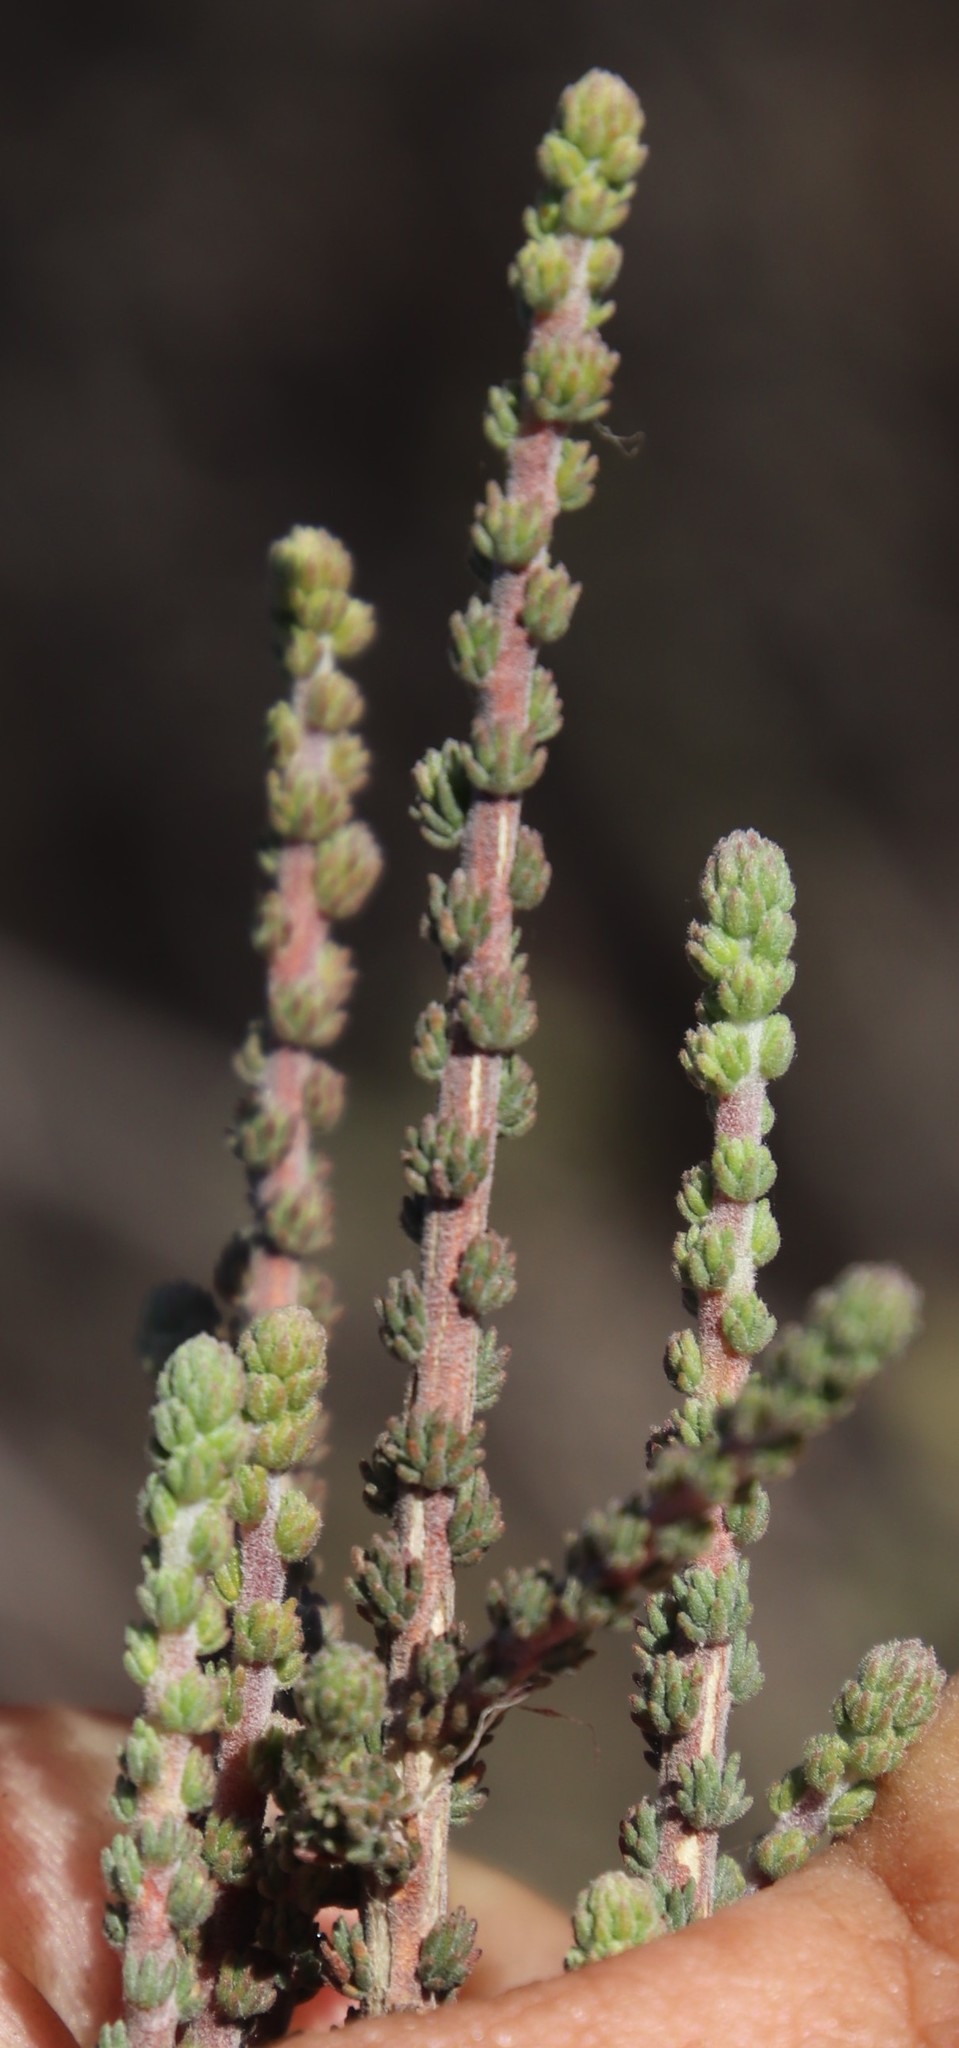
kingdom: Plantae
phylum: Tracheophyta
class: Magnoliopsida
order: Fabales
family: Fabaceae
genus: Aspalathus
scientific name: Aspalathus hispida
